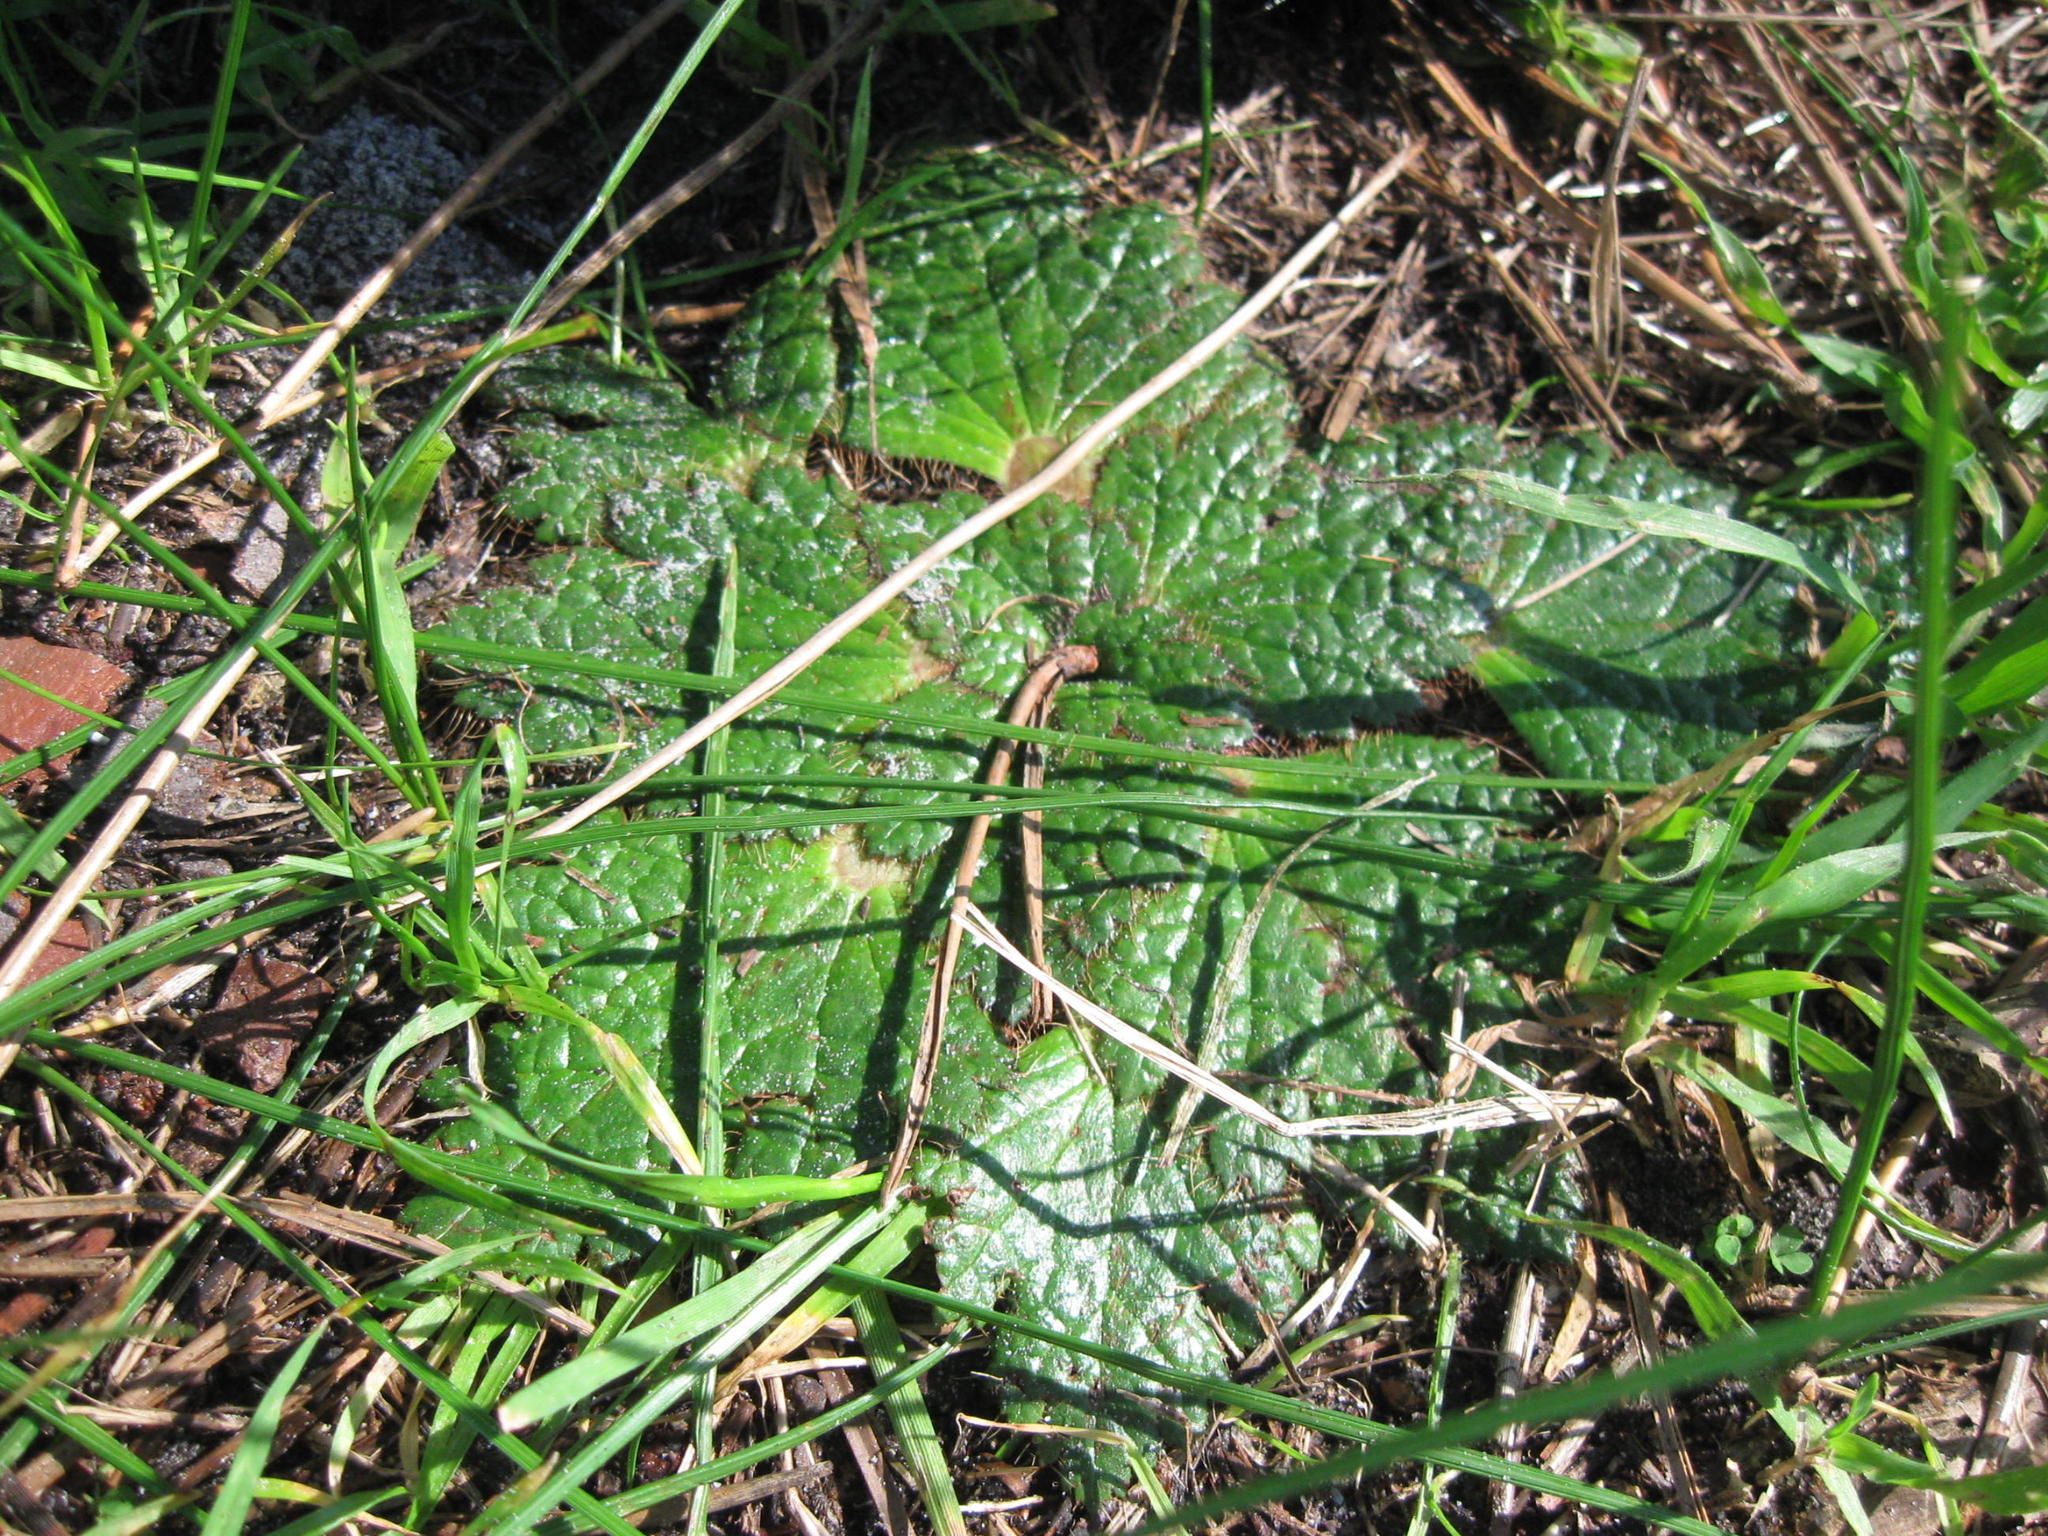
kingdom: Plantae
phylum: Tracheophyta
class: Magnoliopsida
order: Apiales
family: Apiaceae
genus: Arctopus
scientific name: Arctopus echinatus
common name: Platdoring
